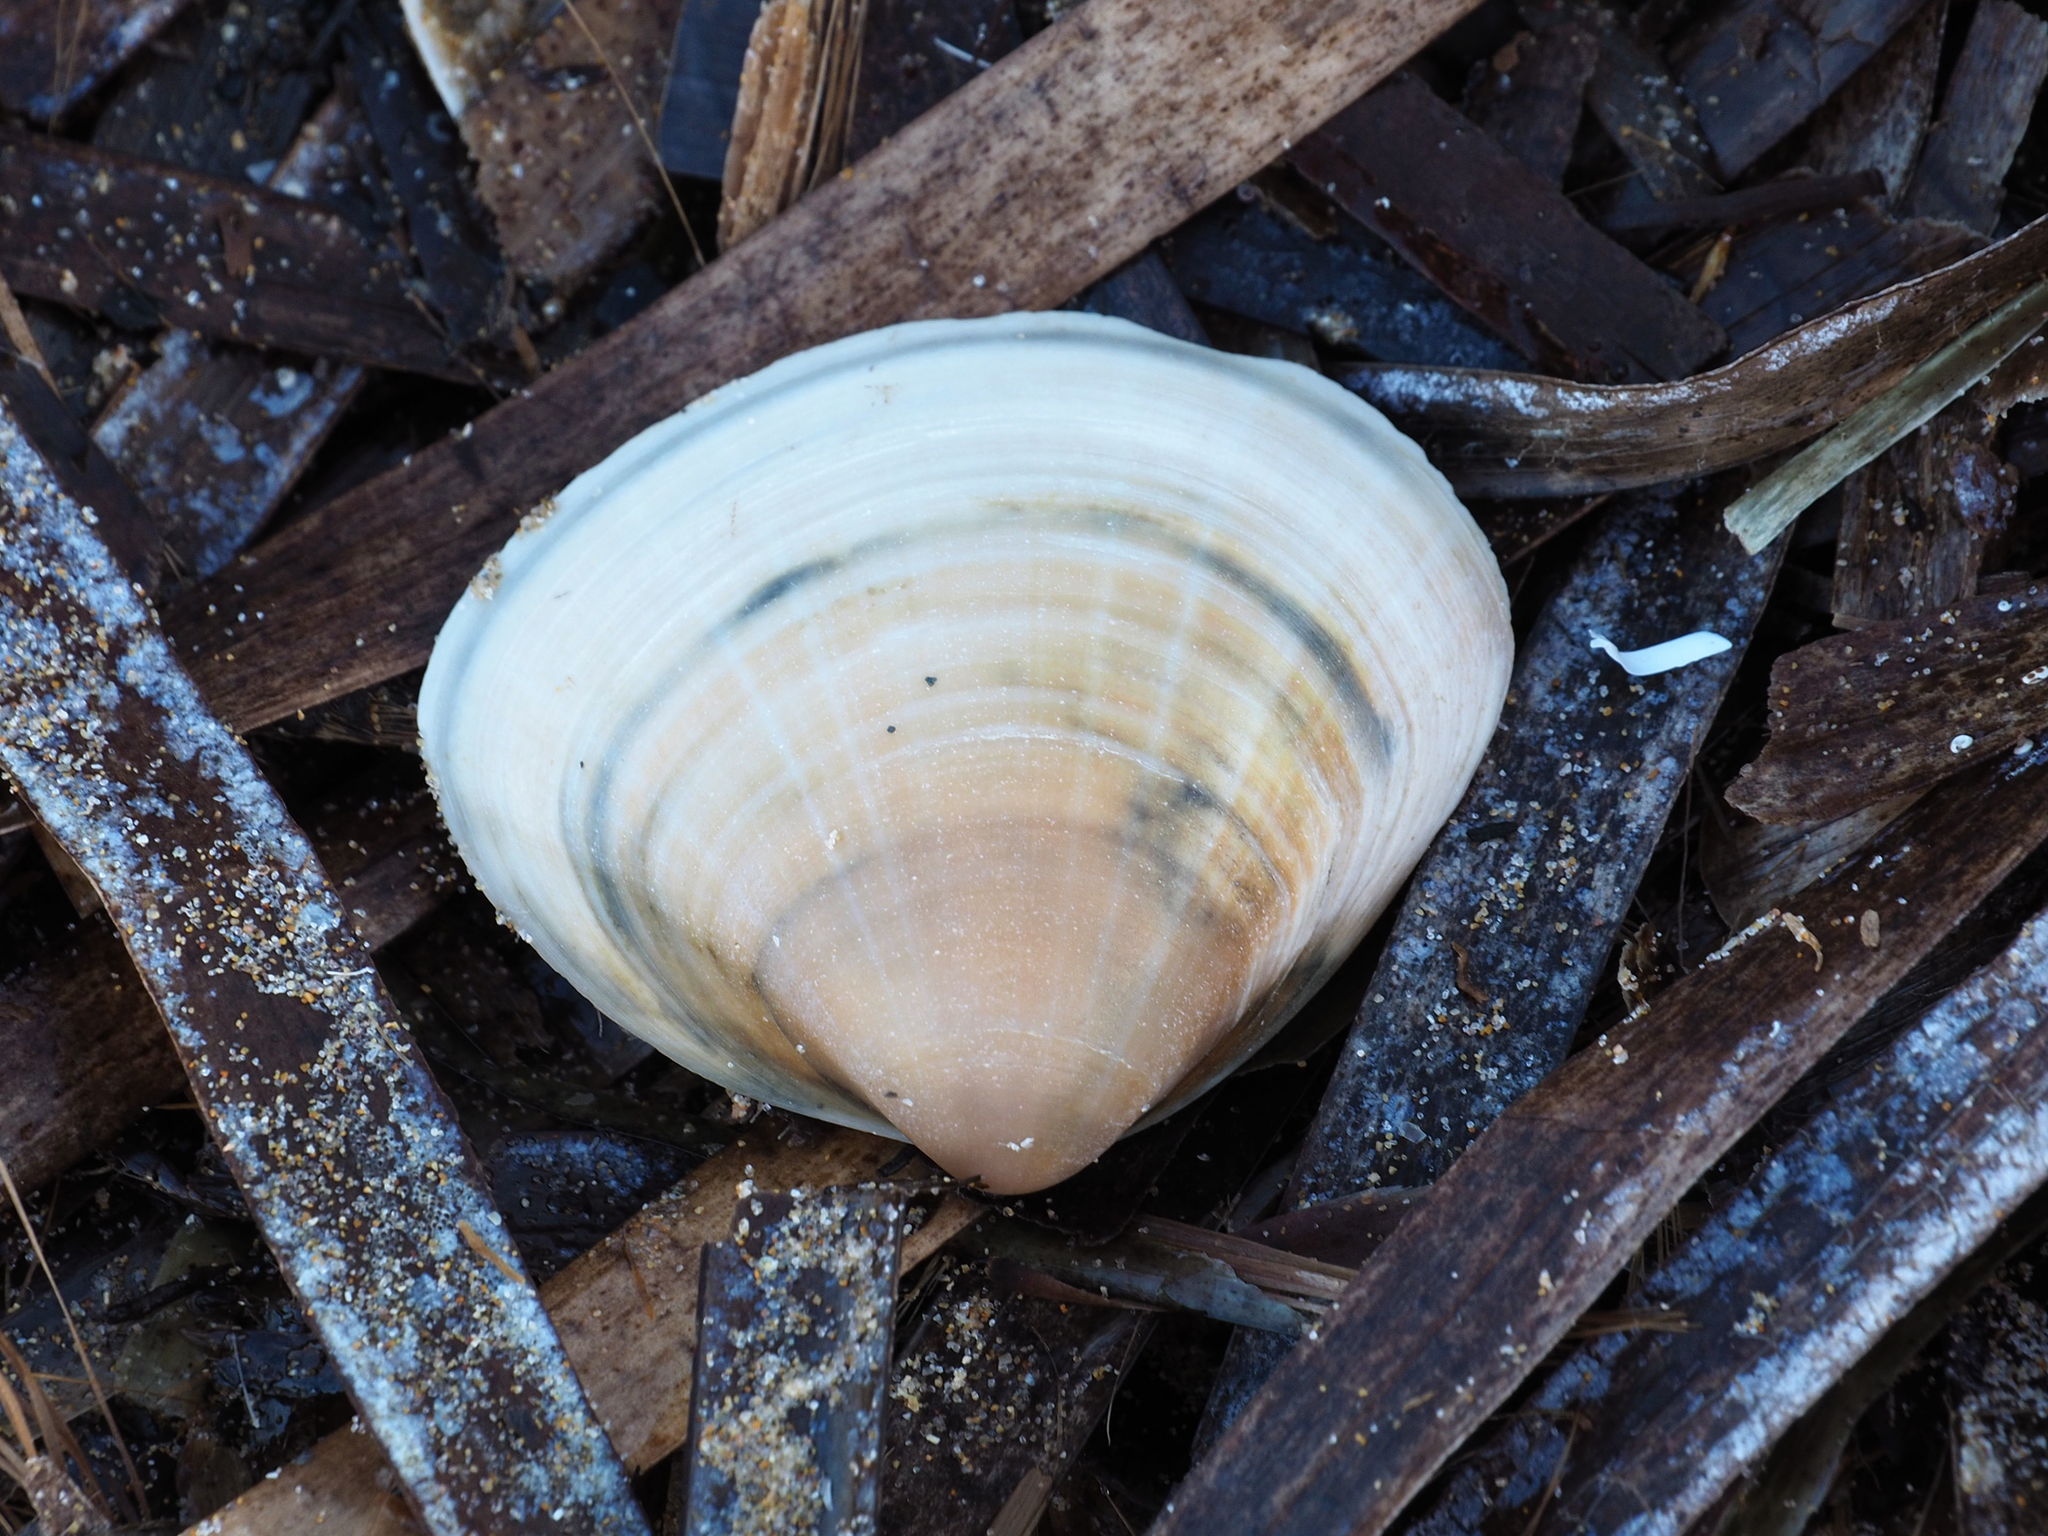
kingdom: Animalia
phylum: Mollusca
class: Bivalvia
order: Venerida
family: Mactridae
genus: Mactra
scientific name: Mactra stultorum
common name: Rayed trough shell
